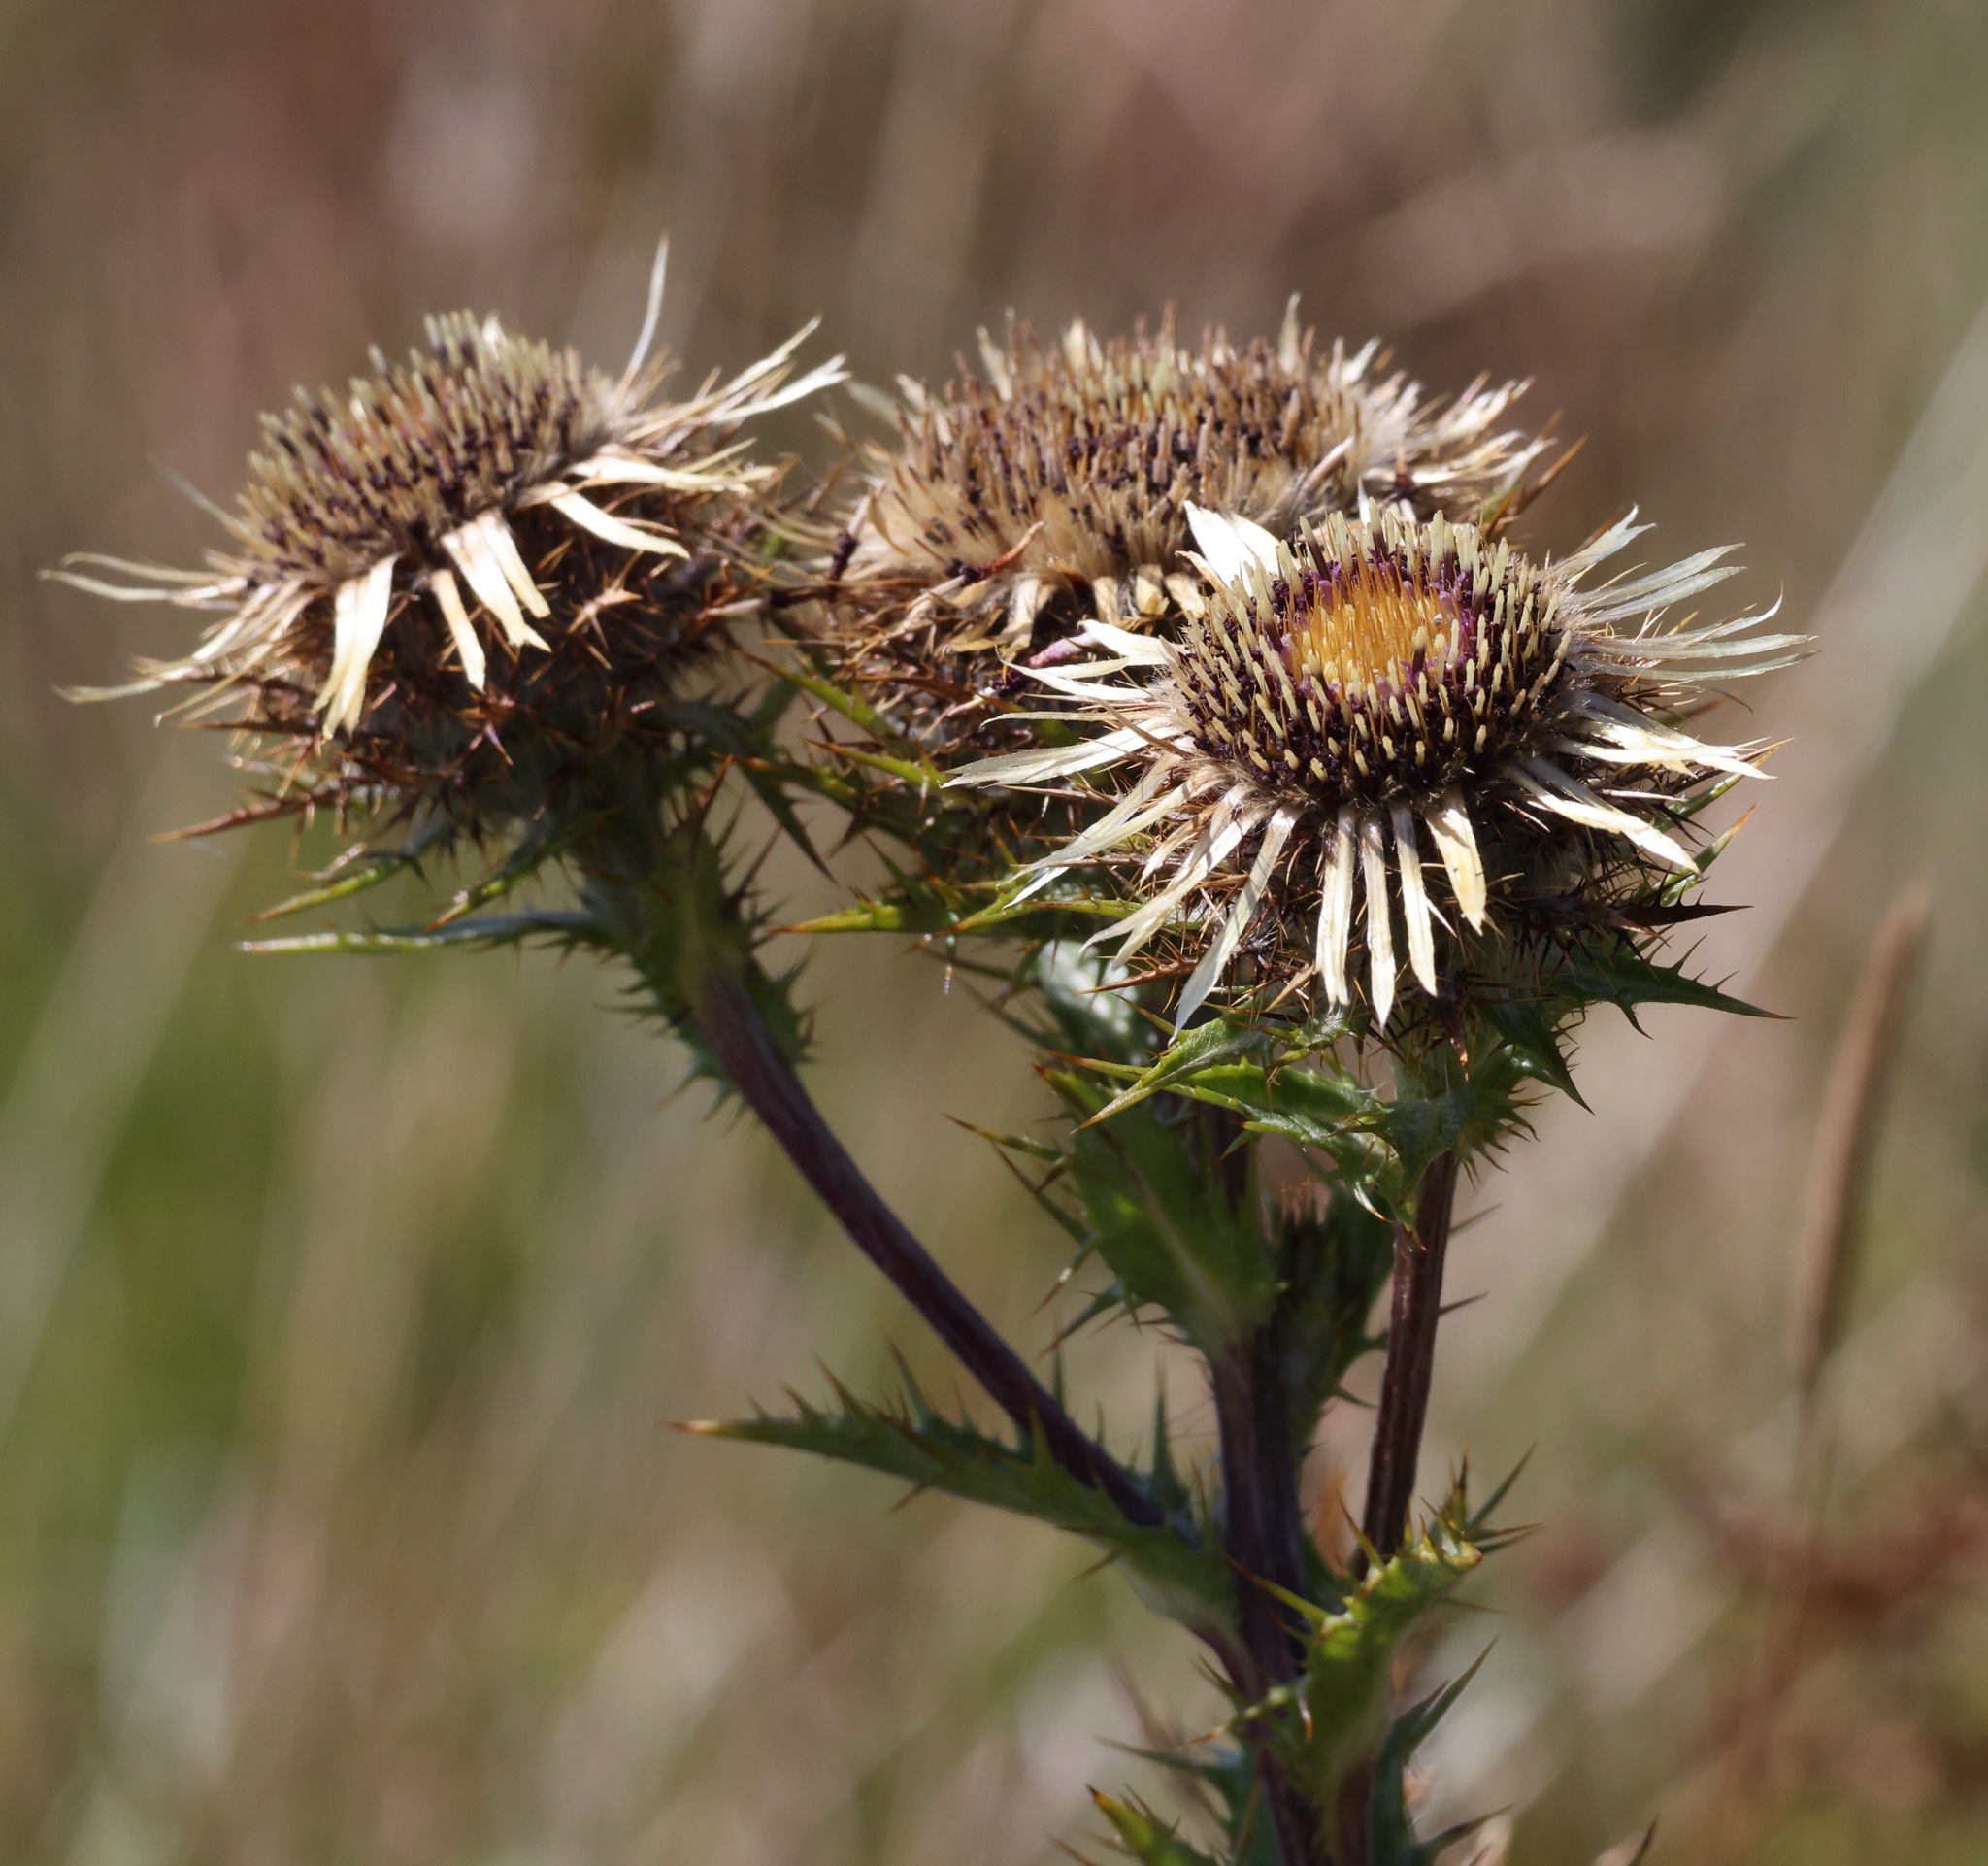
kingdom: Plantae
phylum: Tracheophyta
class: Magnoliopsida
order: Asterales
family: Asteraceae
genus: Carlina
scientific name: Carlina vulgaris
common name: Carline thistle
